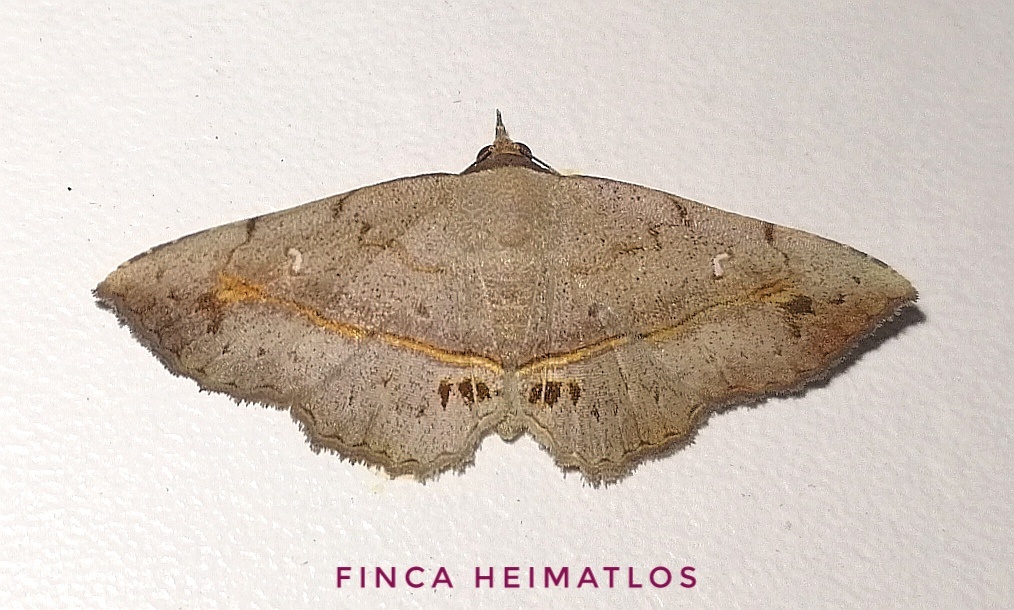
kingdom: Animalia
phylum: Arthropoda
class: Insecta
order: Lepidoptera
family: Erebidae
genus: Renodes
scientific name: Renodes vulgaris
